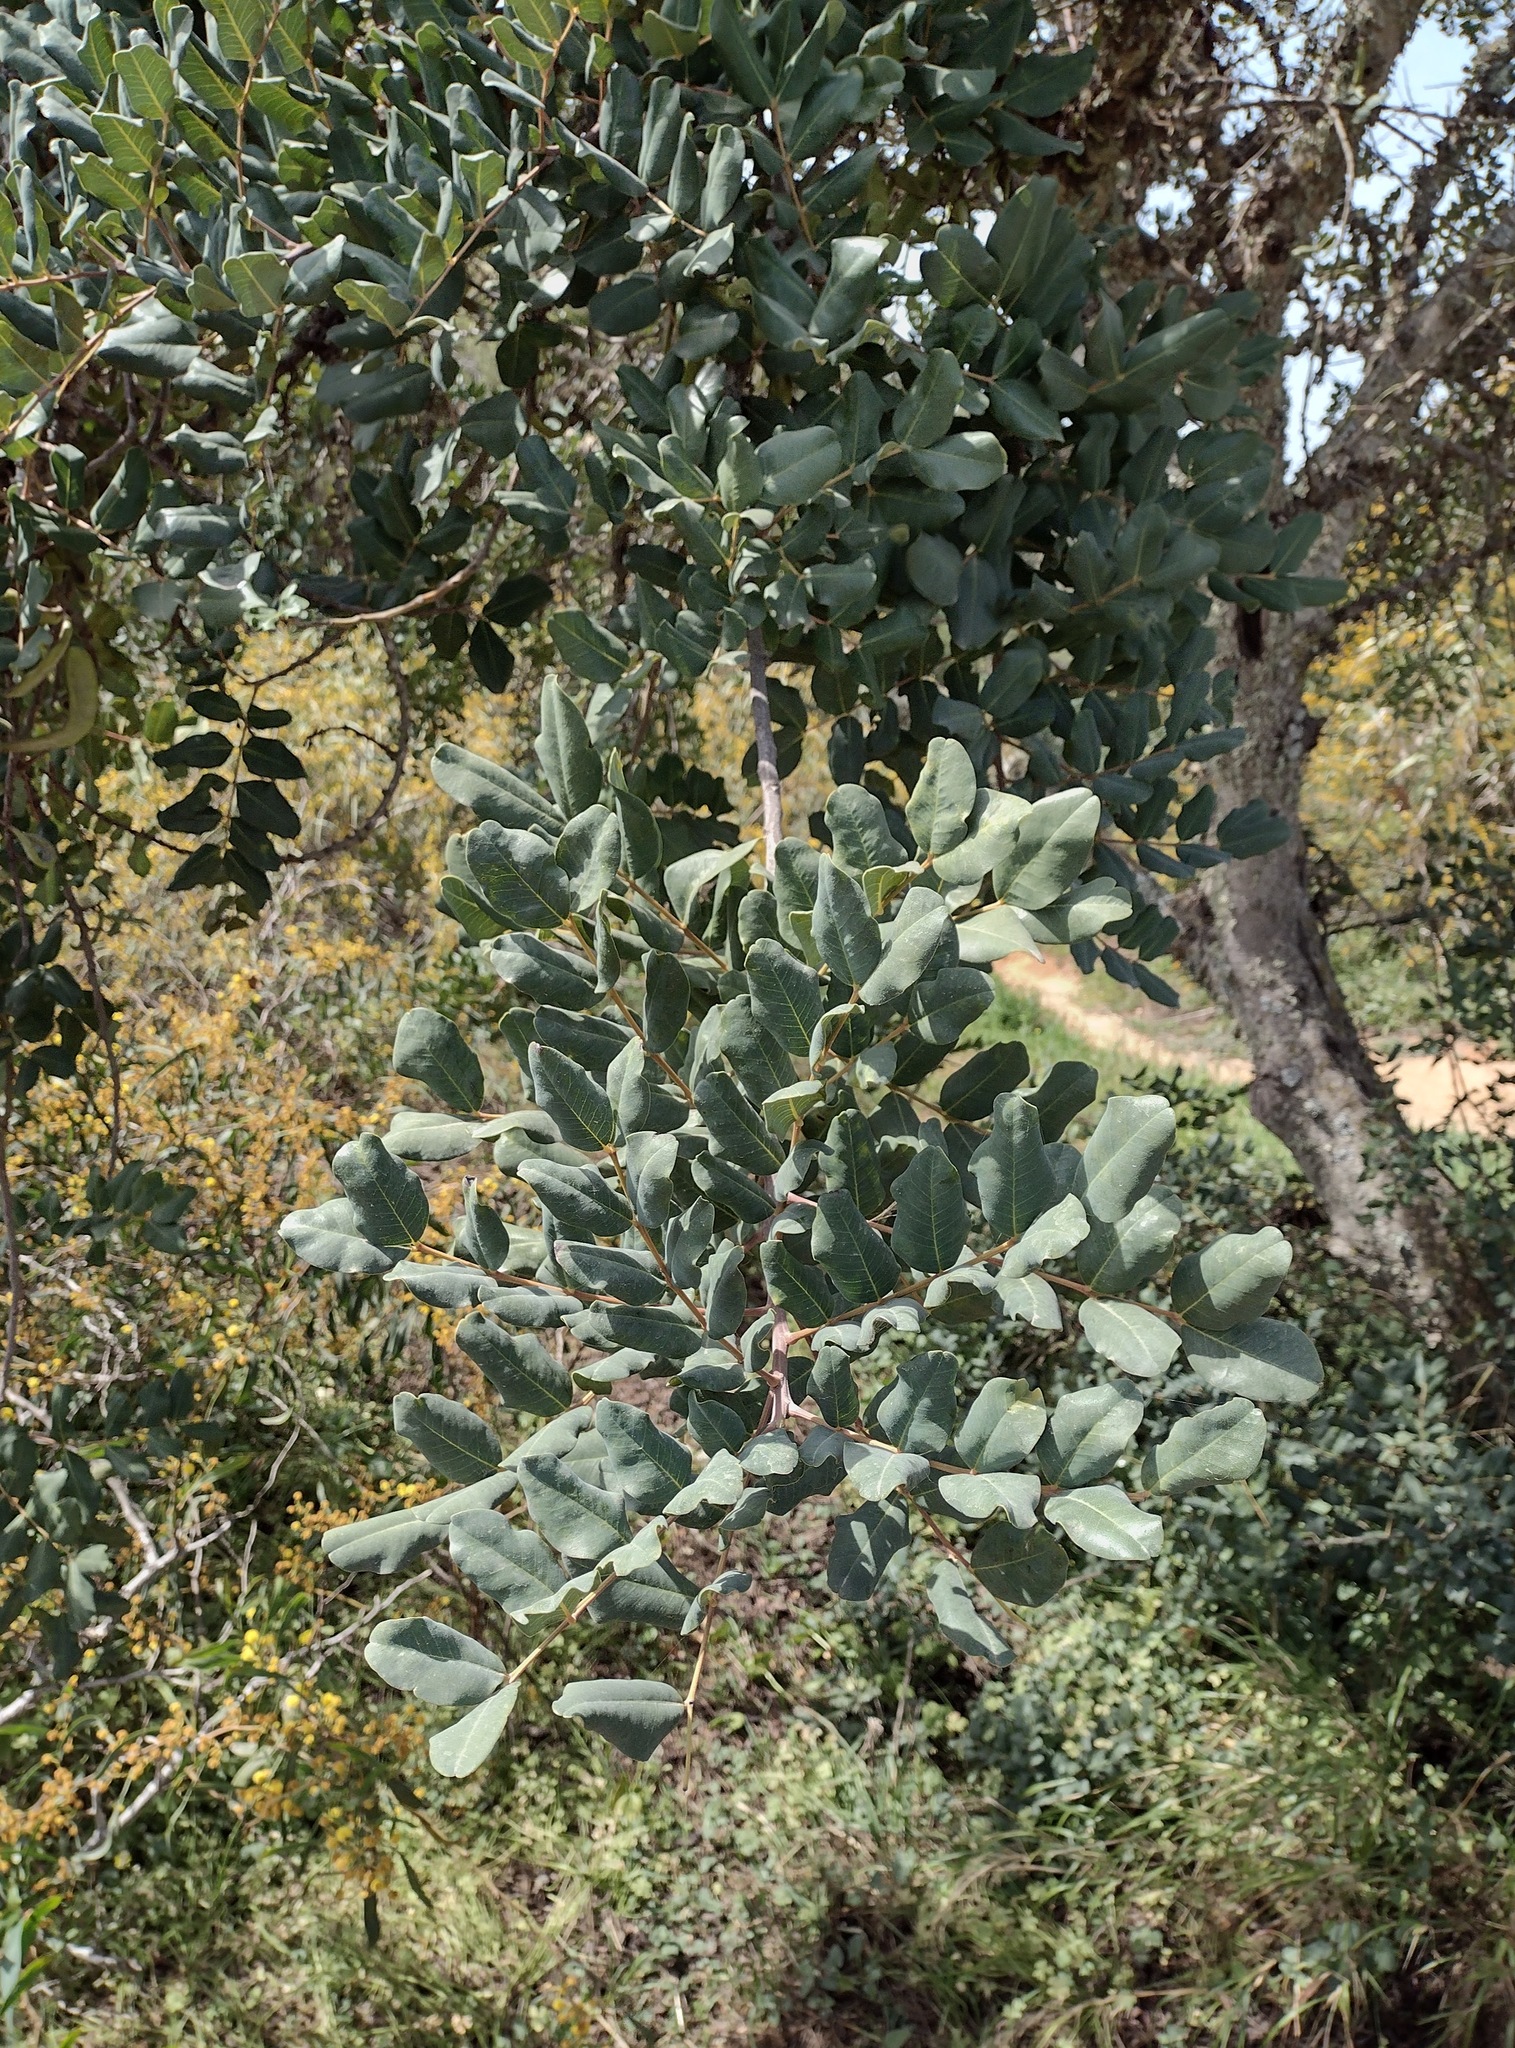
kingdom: Plantae
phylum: Tracheophyta
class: Magnoliopsida
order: Fabales
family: Fabaceae
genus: Ceratonia
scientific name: Ceratonia siliqua
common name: Carob
